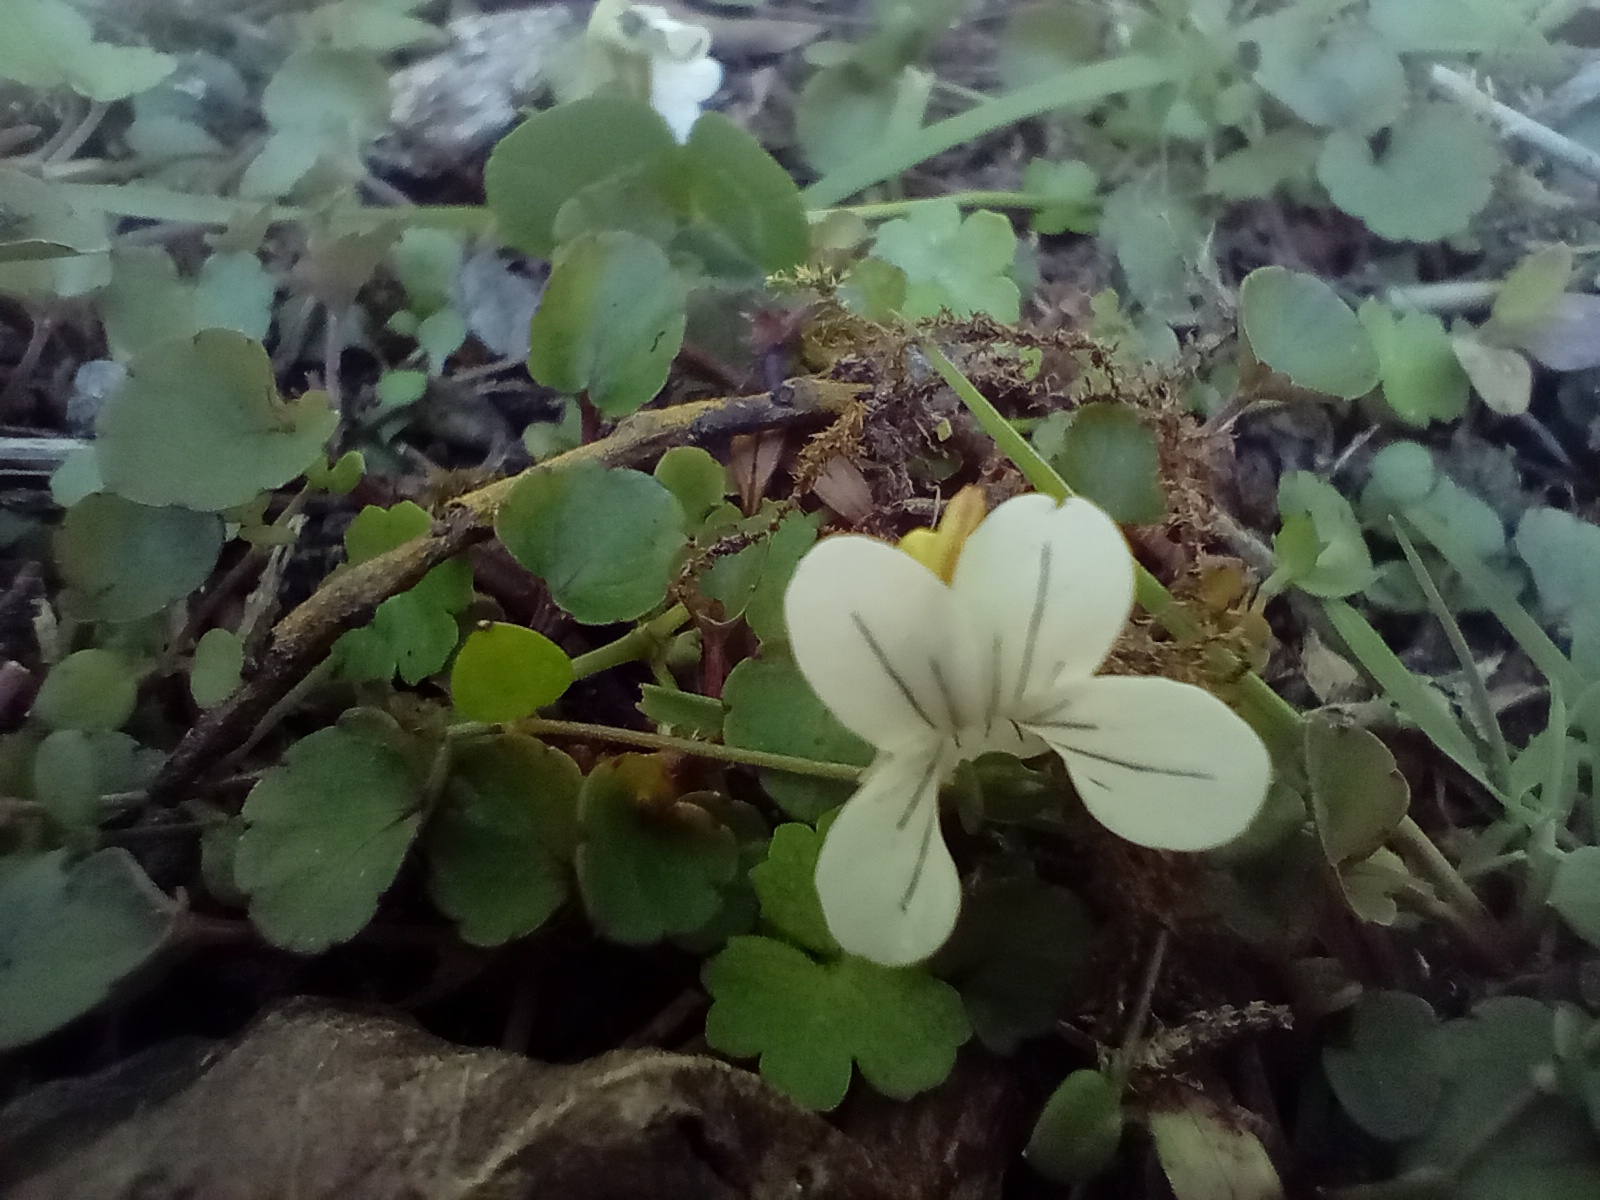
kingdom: Plantae
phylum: Tracheophyta
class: Magnoliopsida
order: Malpighiales
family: Violaceae
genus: Viola
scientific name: Viola filicaulis
